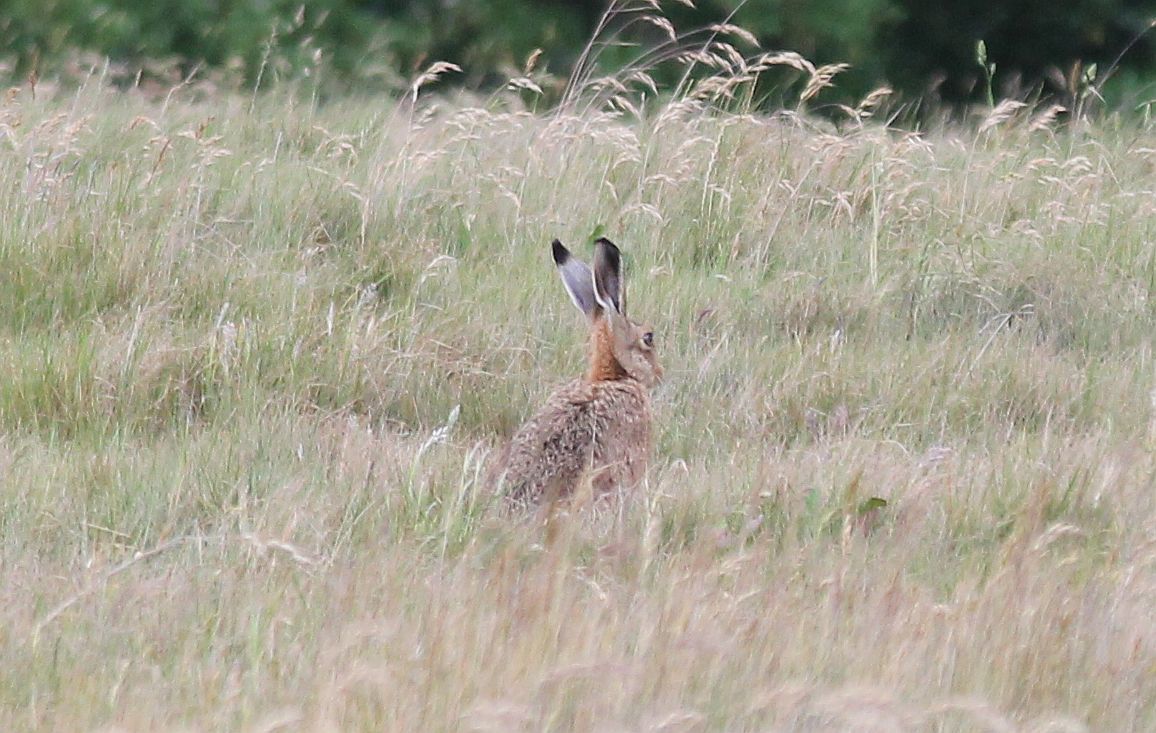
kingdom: Animalia
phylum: Chordata
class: Mammalia
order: Lagomorpha
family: Leporidae
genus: Lepus
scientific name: Lepus europaeus
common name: European hare
